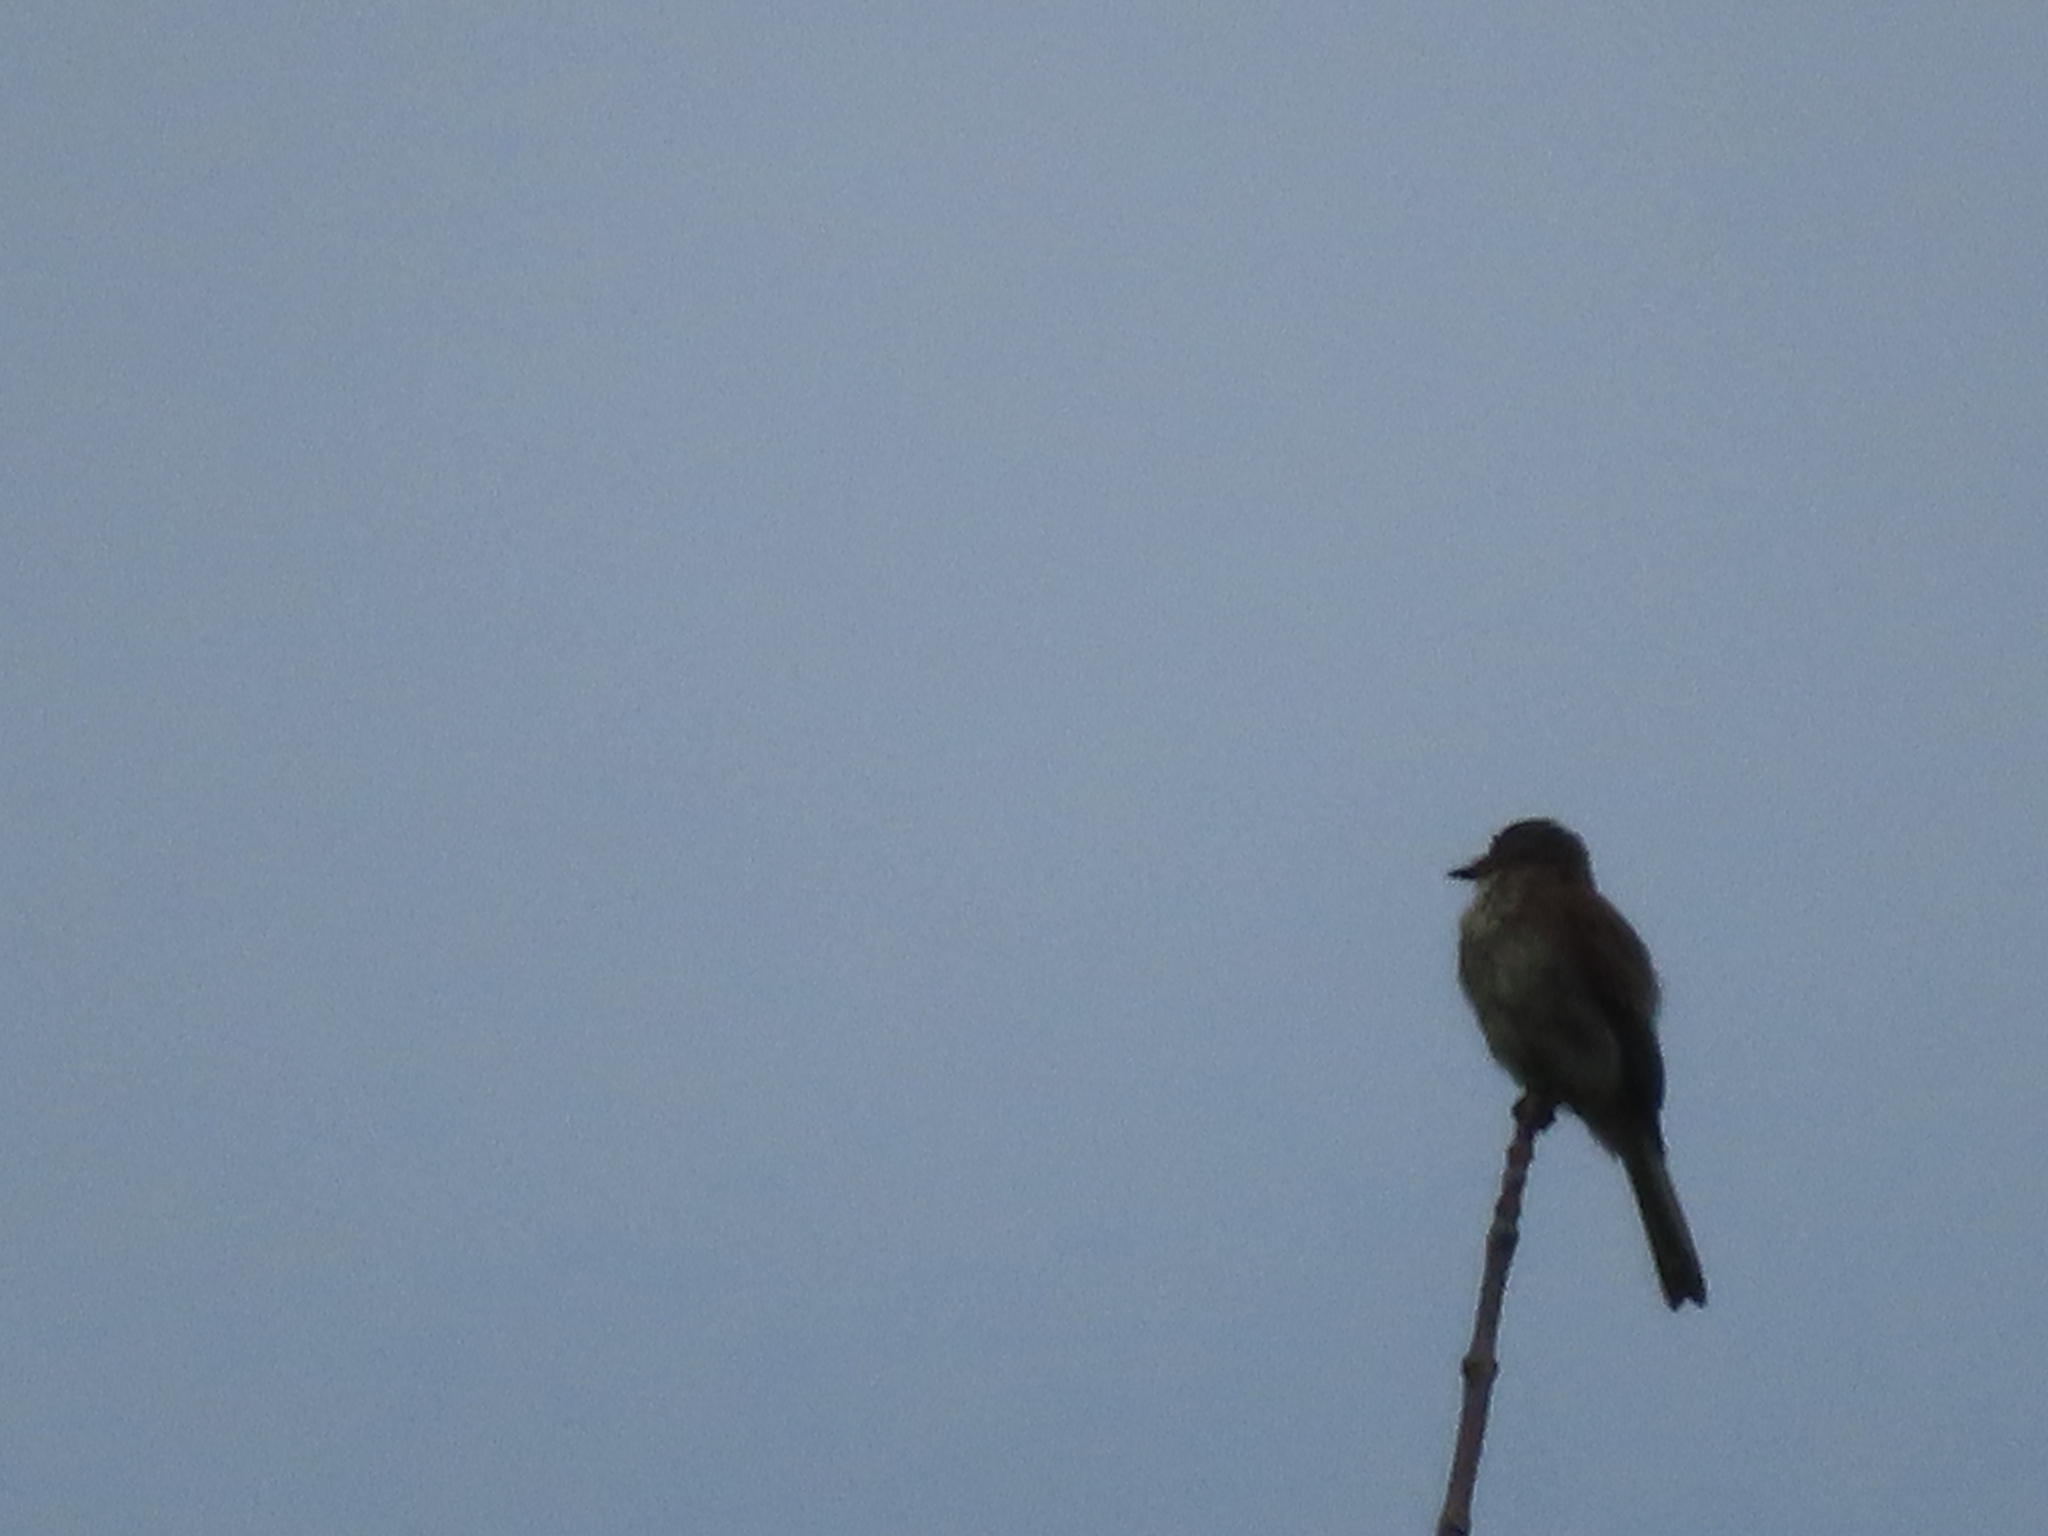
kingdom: Animalia
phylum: Chordata
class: Aves
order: Passeriformes
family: Tyrannidae
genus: Sayornis
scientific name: Sayornis phoebe
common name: Eastern phoebe
